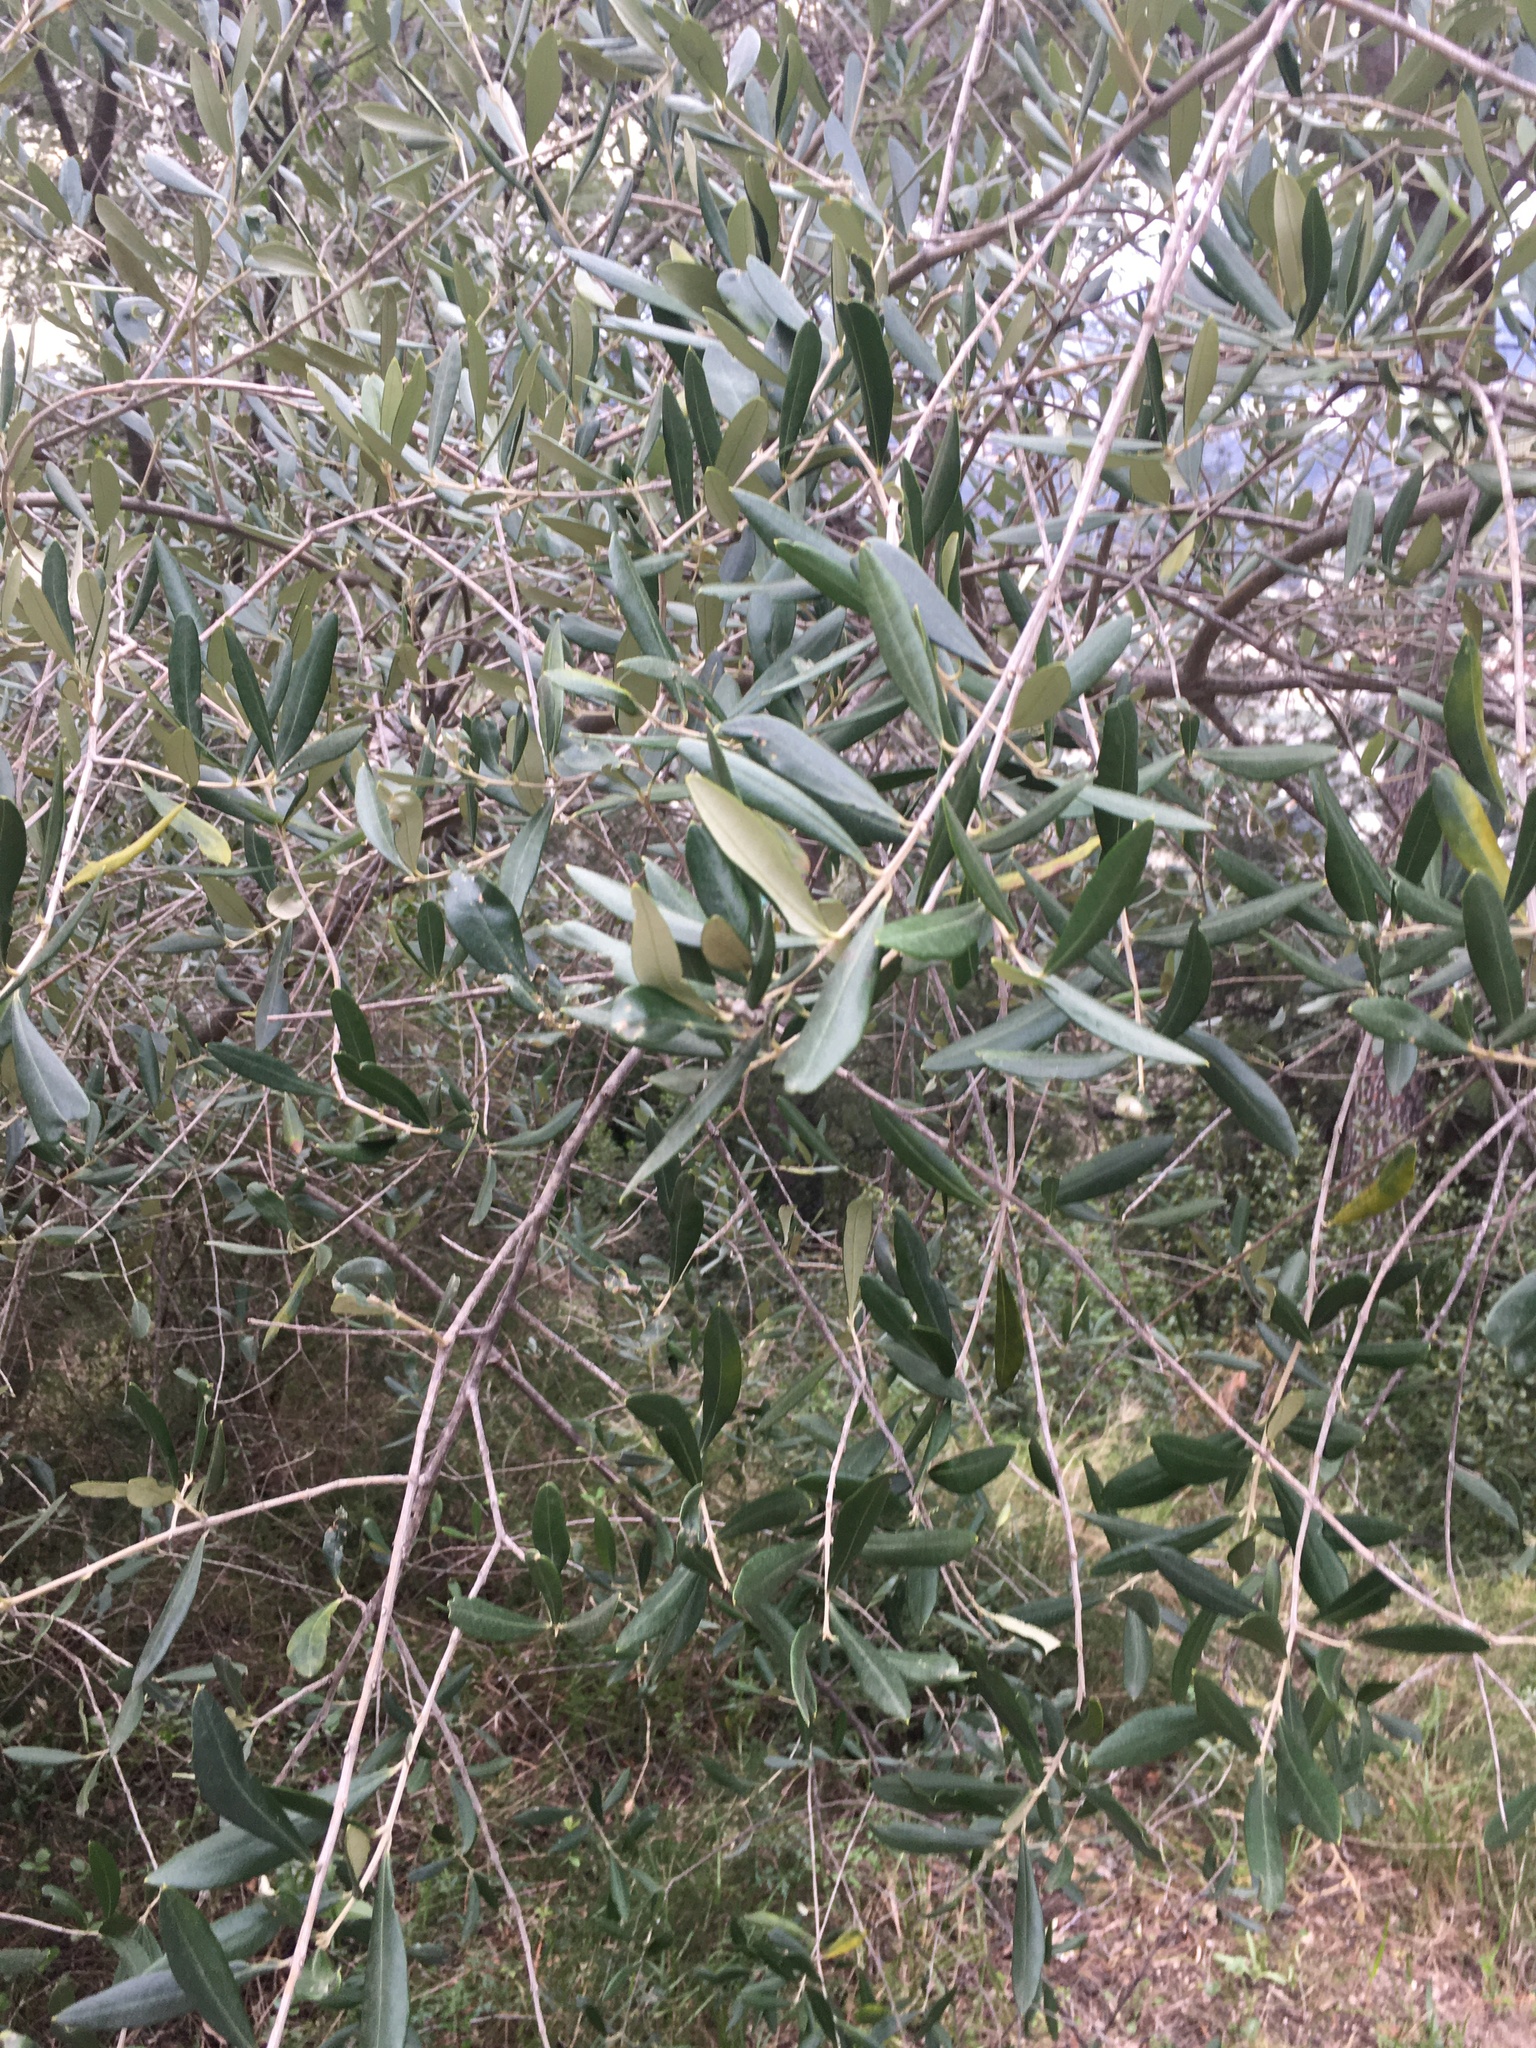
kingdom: Plantae
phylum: Tracheophyta
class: Magnoliopsida
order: Lamiales
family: Oleaceae
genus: Olea
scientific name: Olea europaea
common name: Olive
